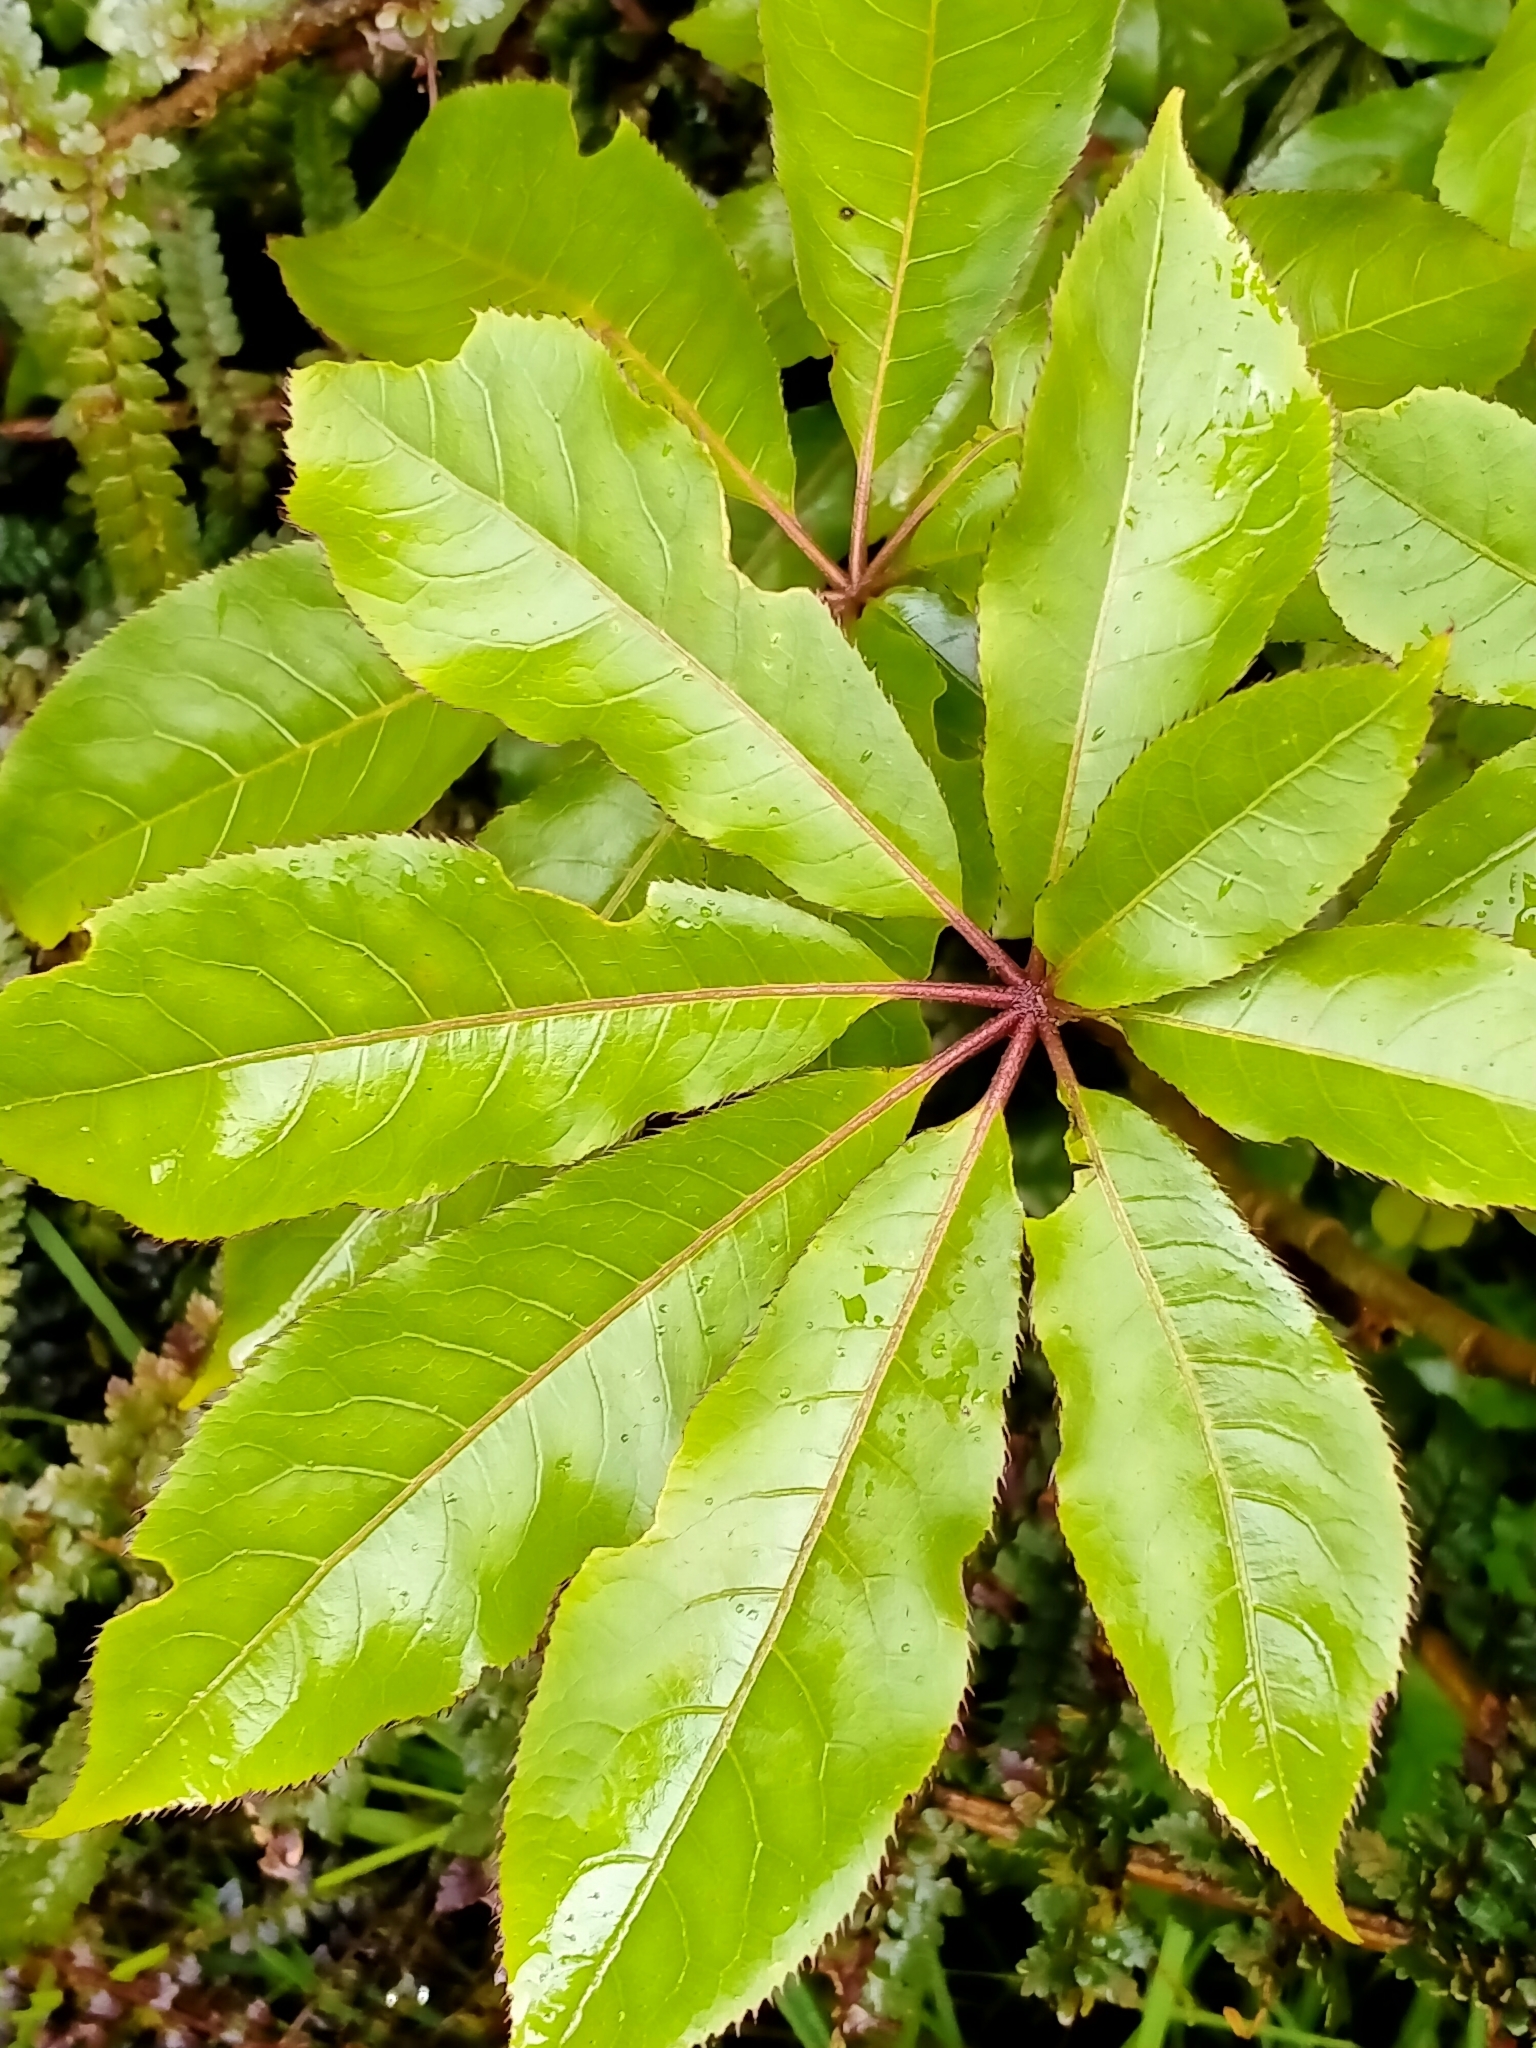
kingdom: Plantae
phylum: Tracheophyta
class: Magnoliopsida
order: Apiales
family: Araliaceae
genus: Schefflera
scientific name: Schefflera digitata
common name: Pate
